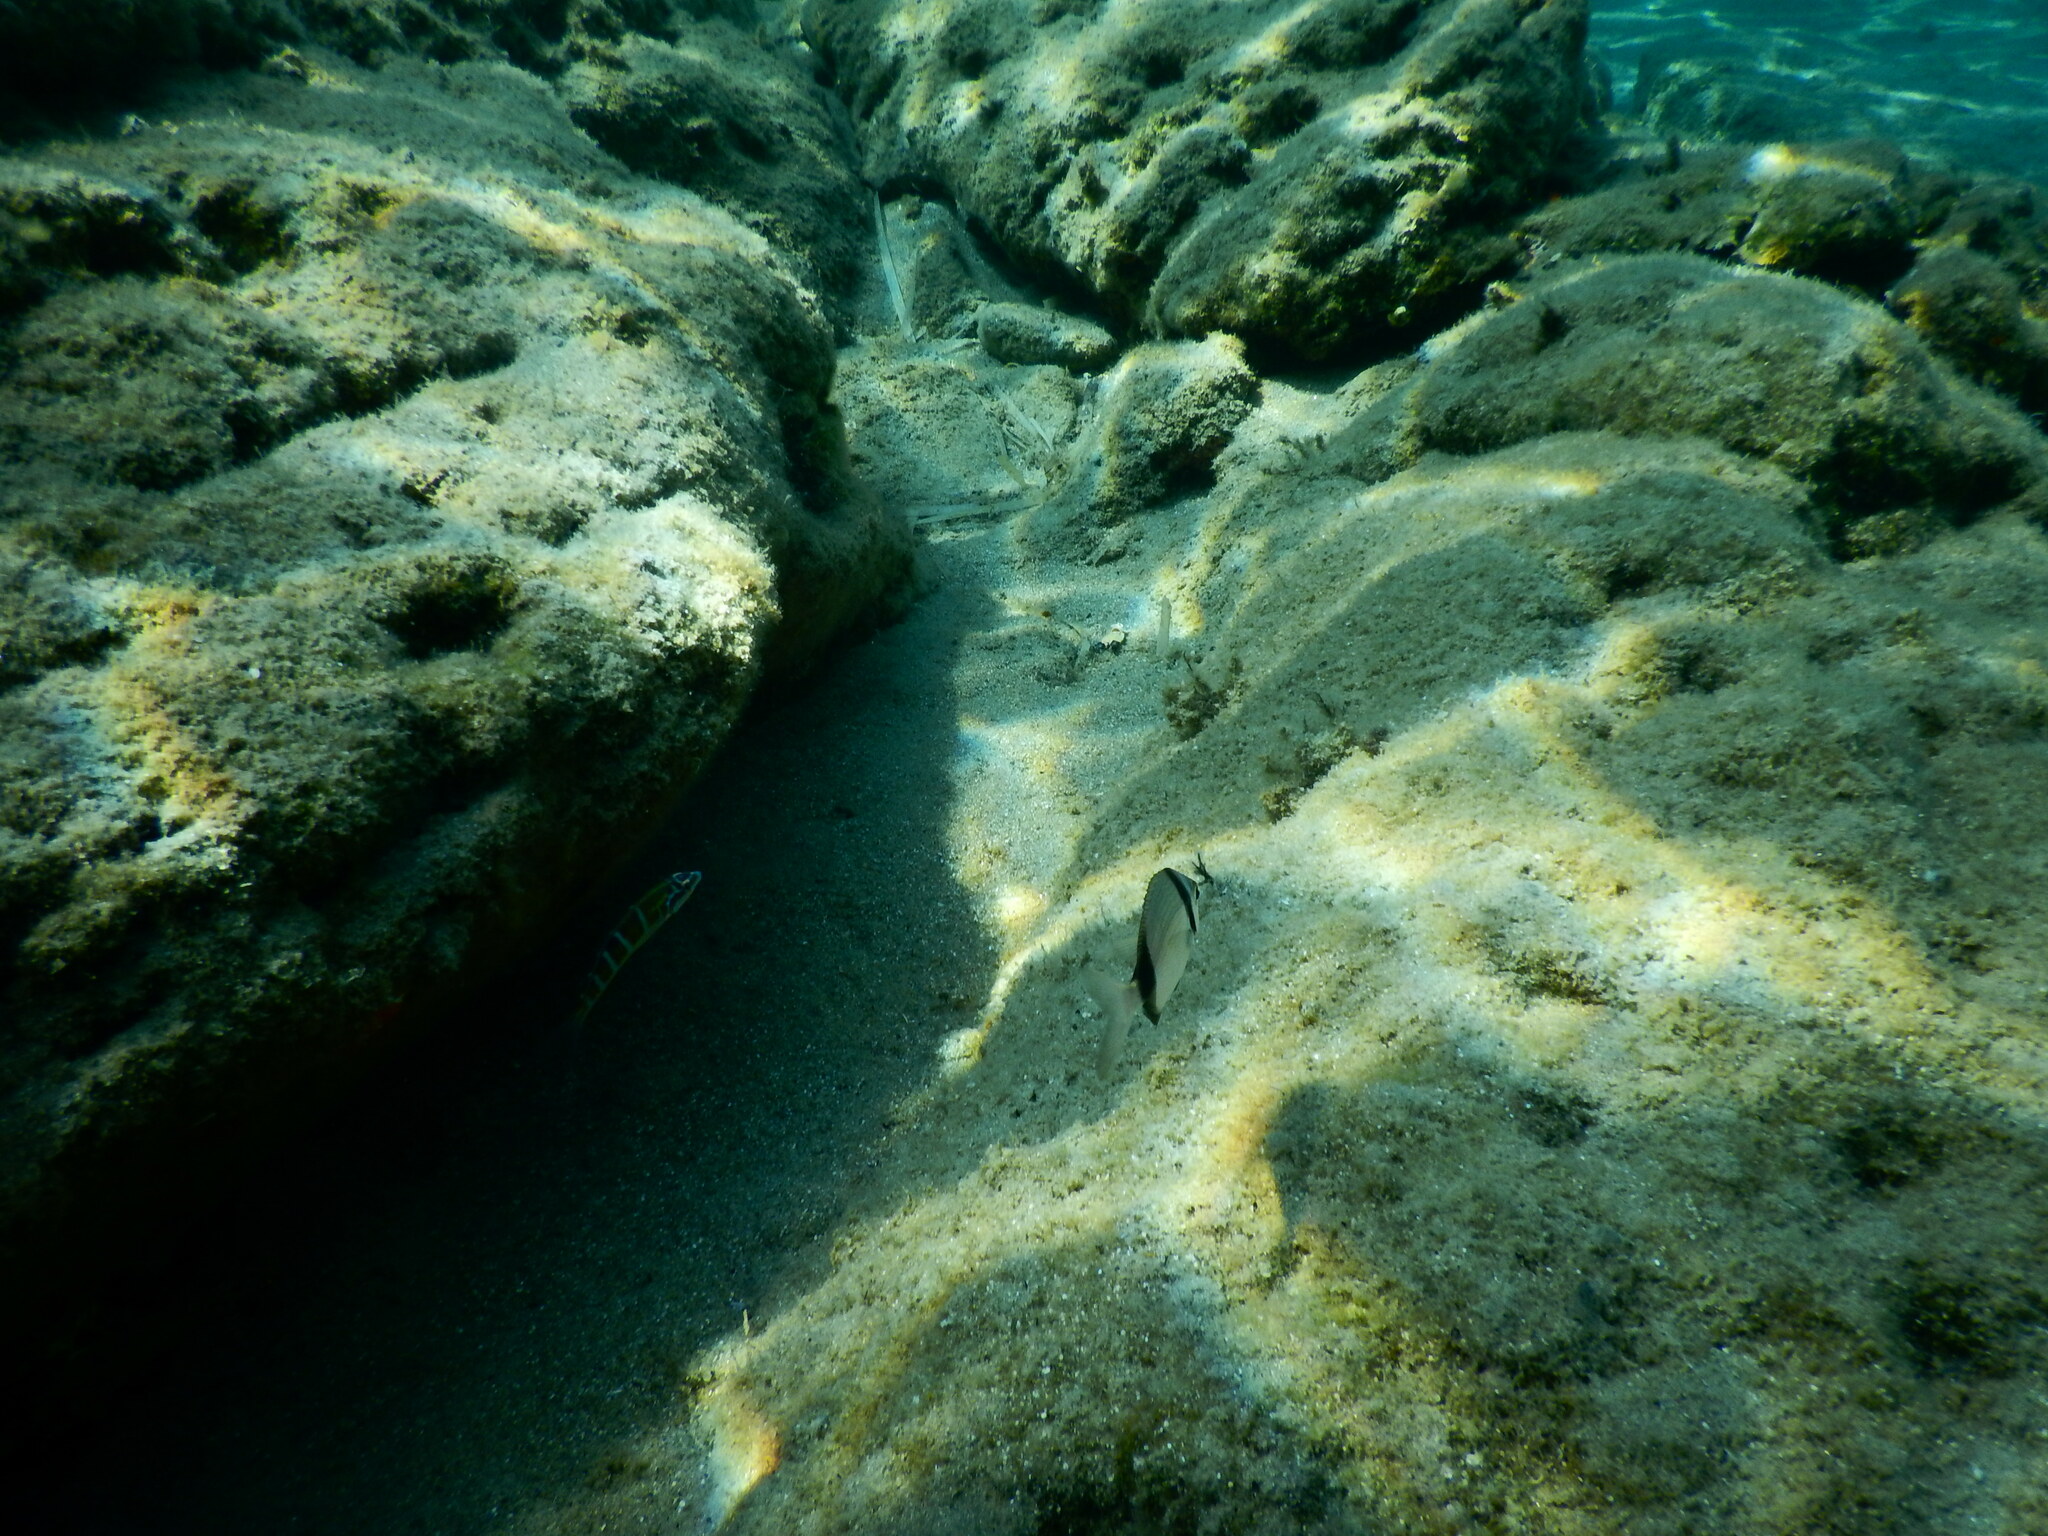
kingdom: Animalia
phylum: Chordata
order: Perciformes
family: Sparidae
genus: Diplodus
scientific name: Diplodus vulgaris
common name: Common two-banded seabream
